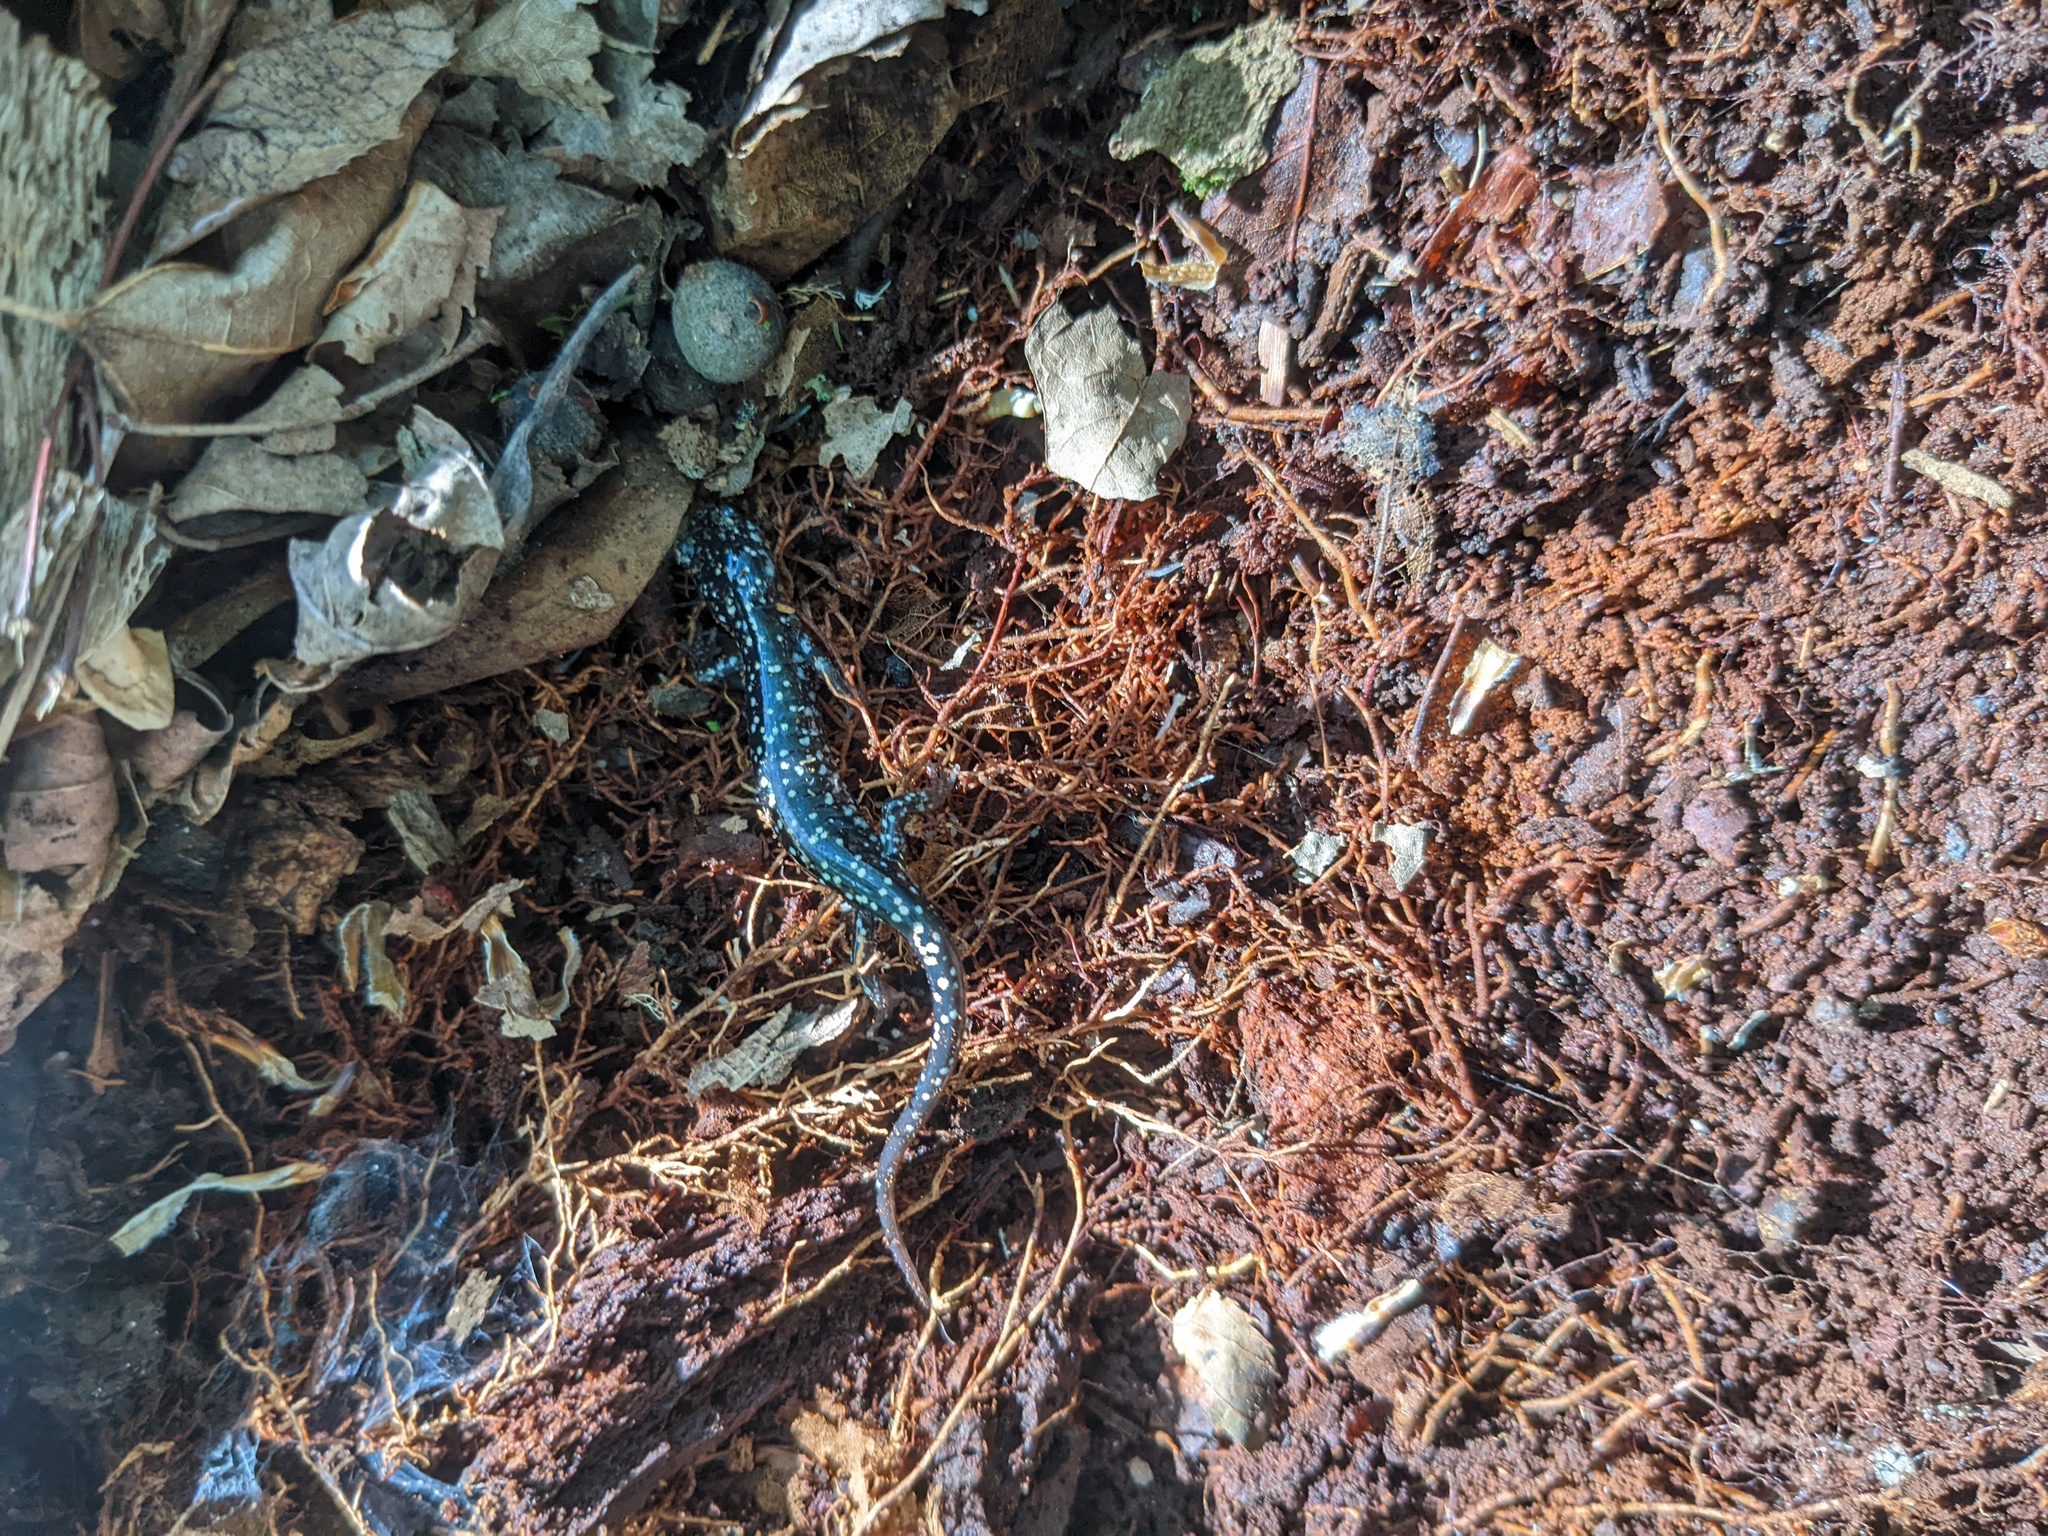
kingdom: Animalia
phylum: Chordata
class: Amphibia
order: Caudata
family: Plethodontidae
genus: Plethodon
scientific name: Plethodon glutinosus
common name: Northern slimy salamander
